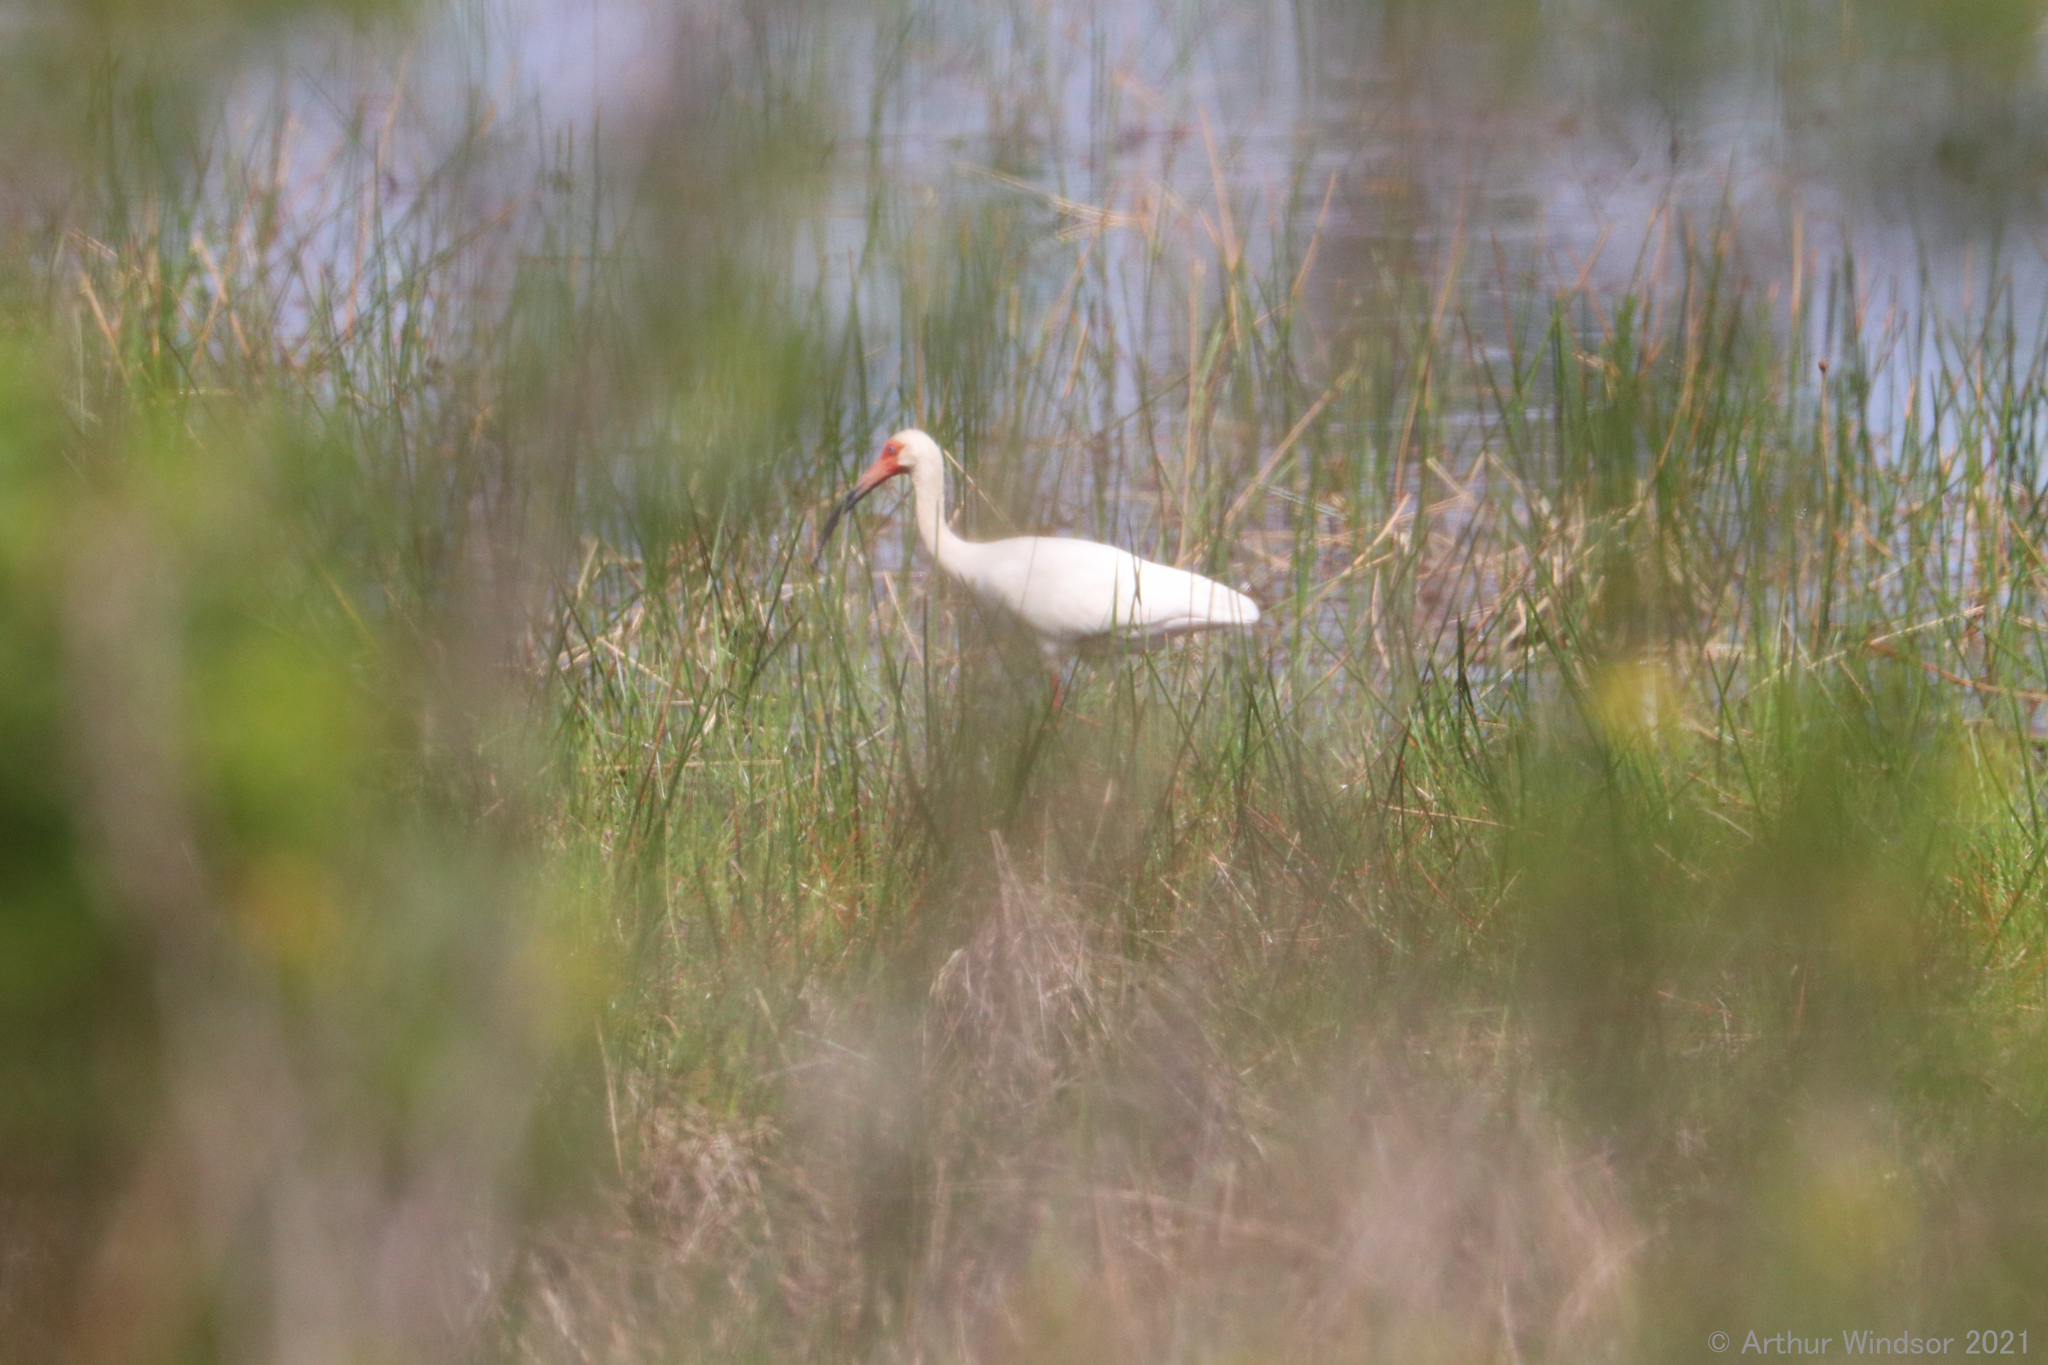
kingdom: Animalia
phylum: Chordata
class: Aves
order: Pelecaniformes
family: Threskiornithidae
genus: Eudocimus
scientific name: Eudocimus albus
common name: White ibis
